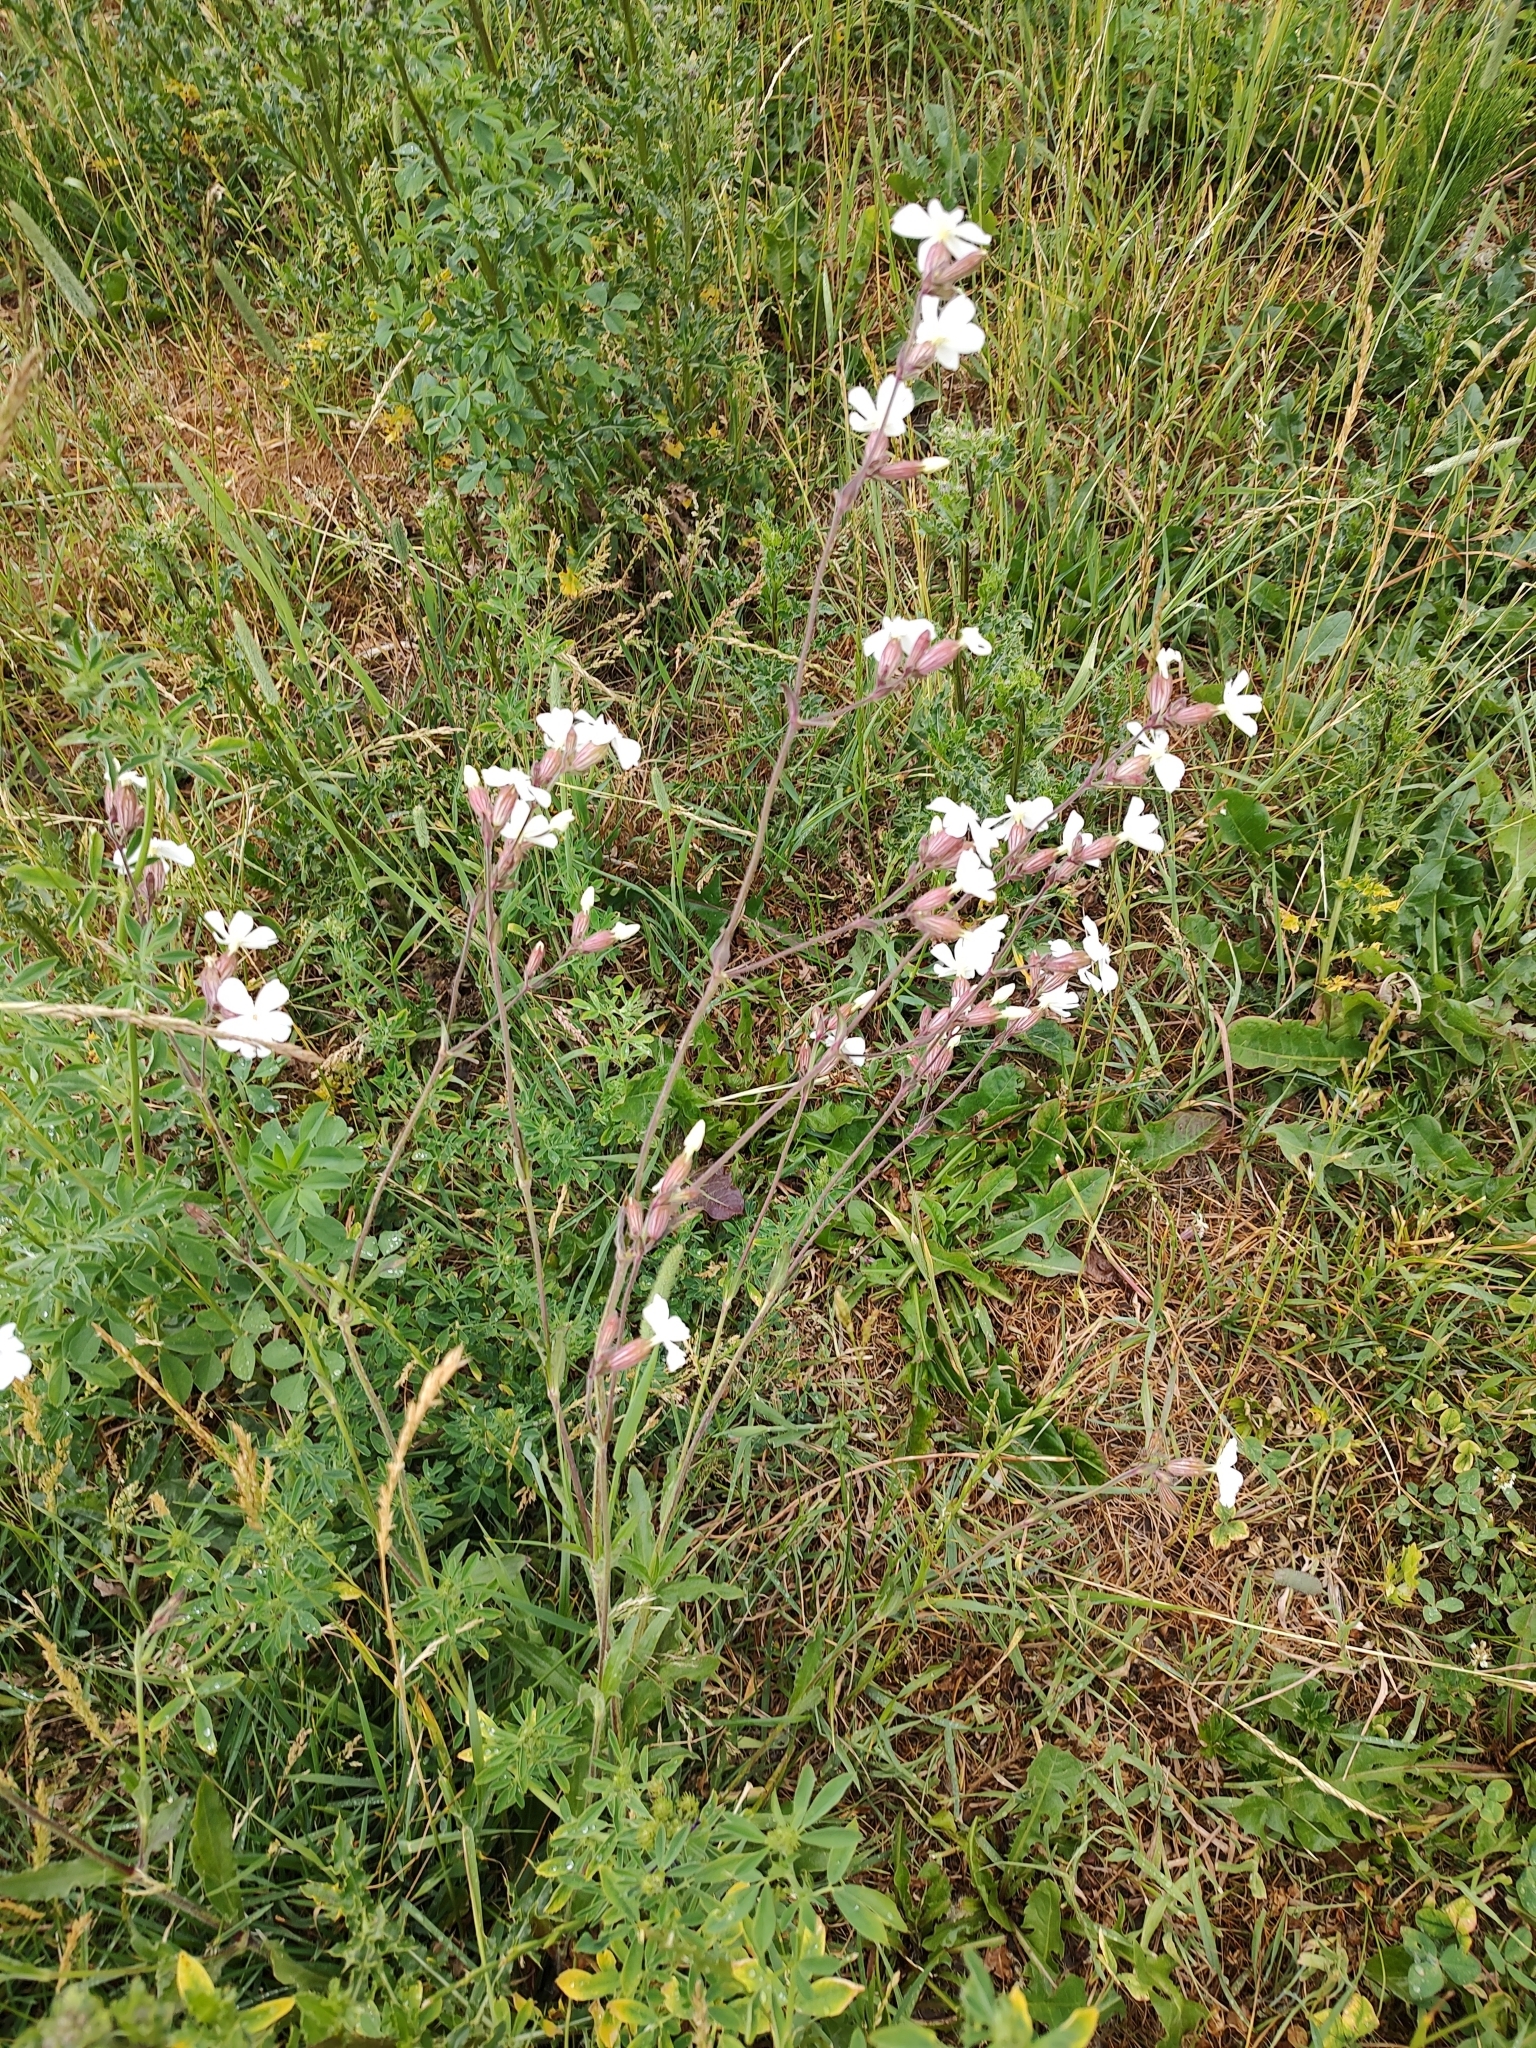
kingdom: Plantae
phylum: Tracheophyta
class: Magnoliopsida
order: Caryophyllales
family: Caryophyllaceae
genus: Silene
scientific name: Silene latifolia
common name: White campion
